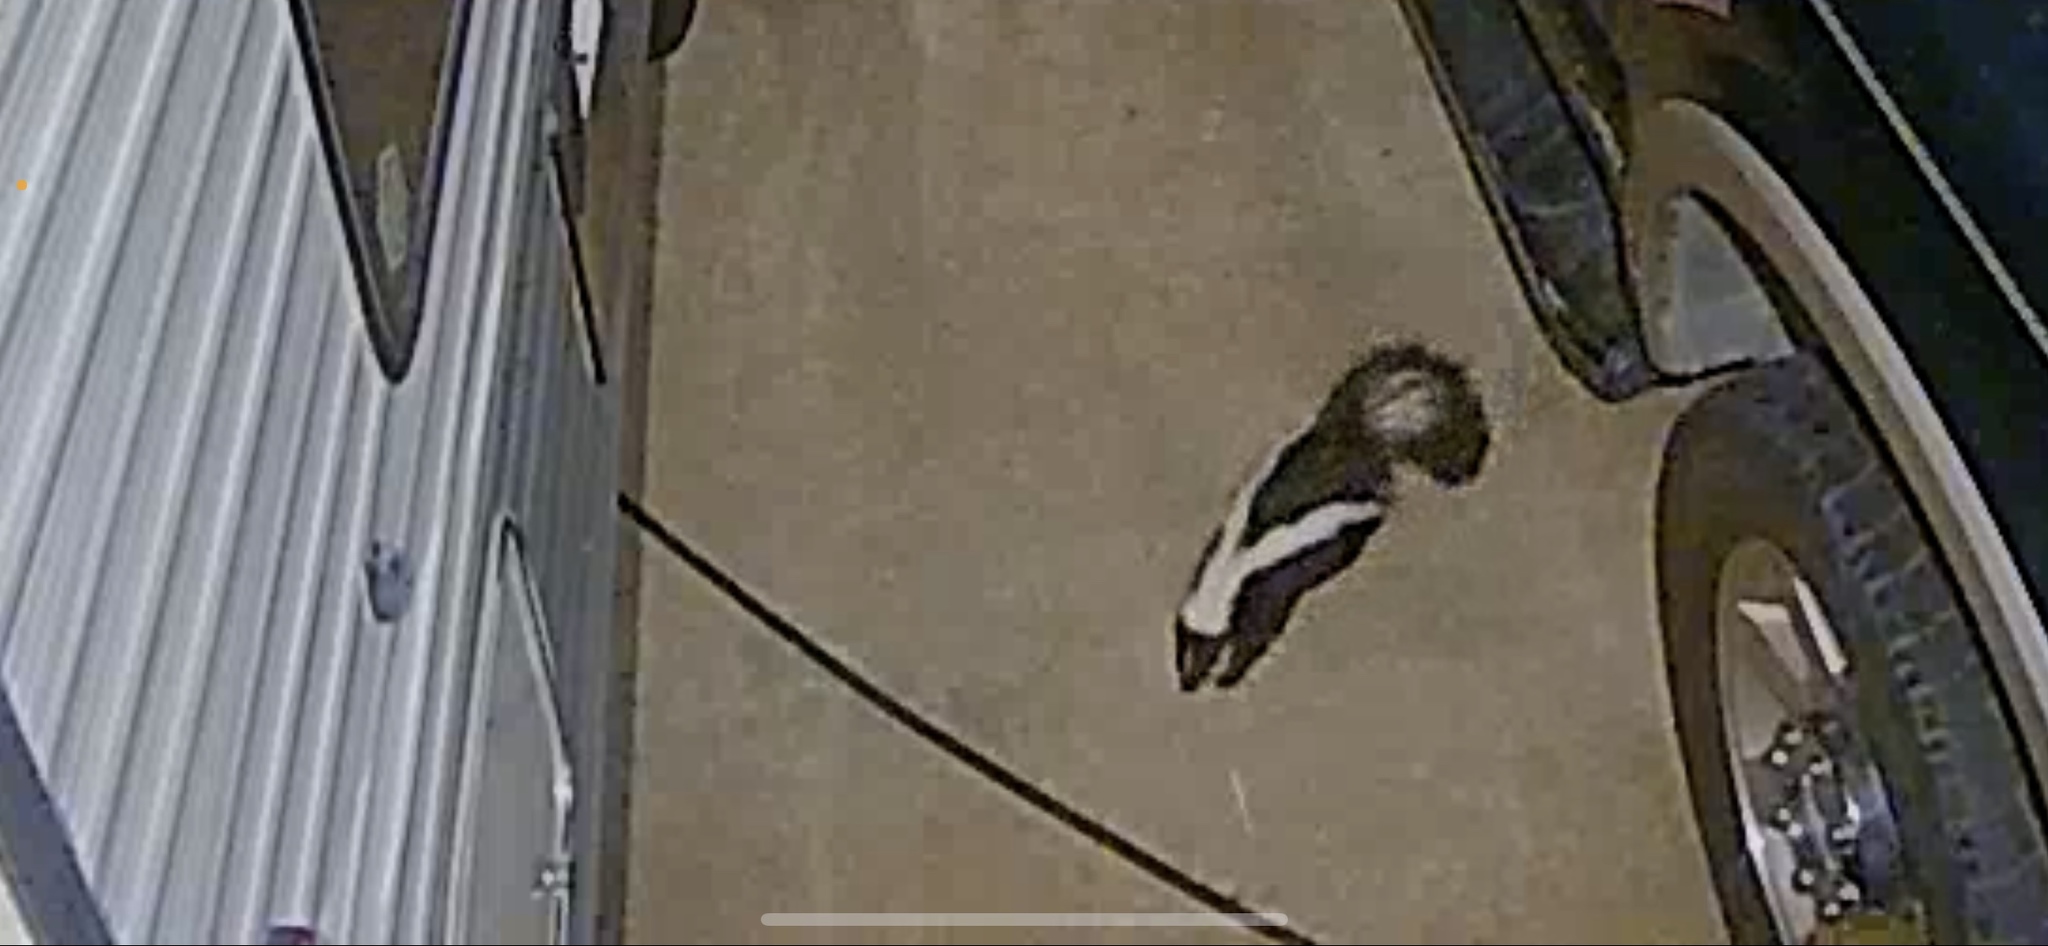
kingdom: Animalia
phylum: Chordata
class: Mammalia
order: Carnivora
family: Mephitidae
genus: Mephitis
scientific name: Mephitis mephitis
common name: Striped skunk
